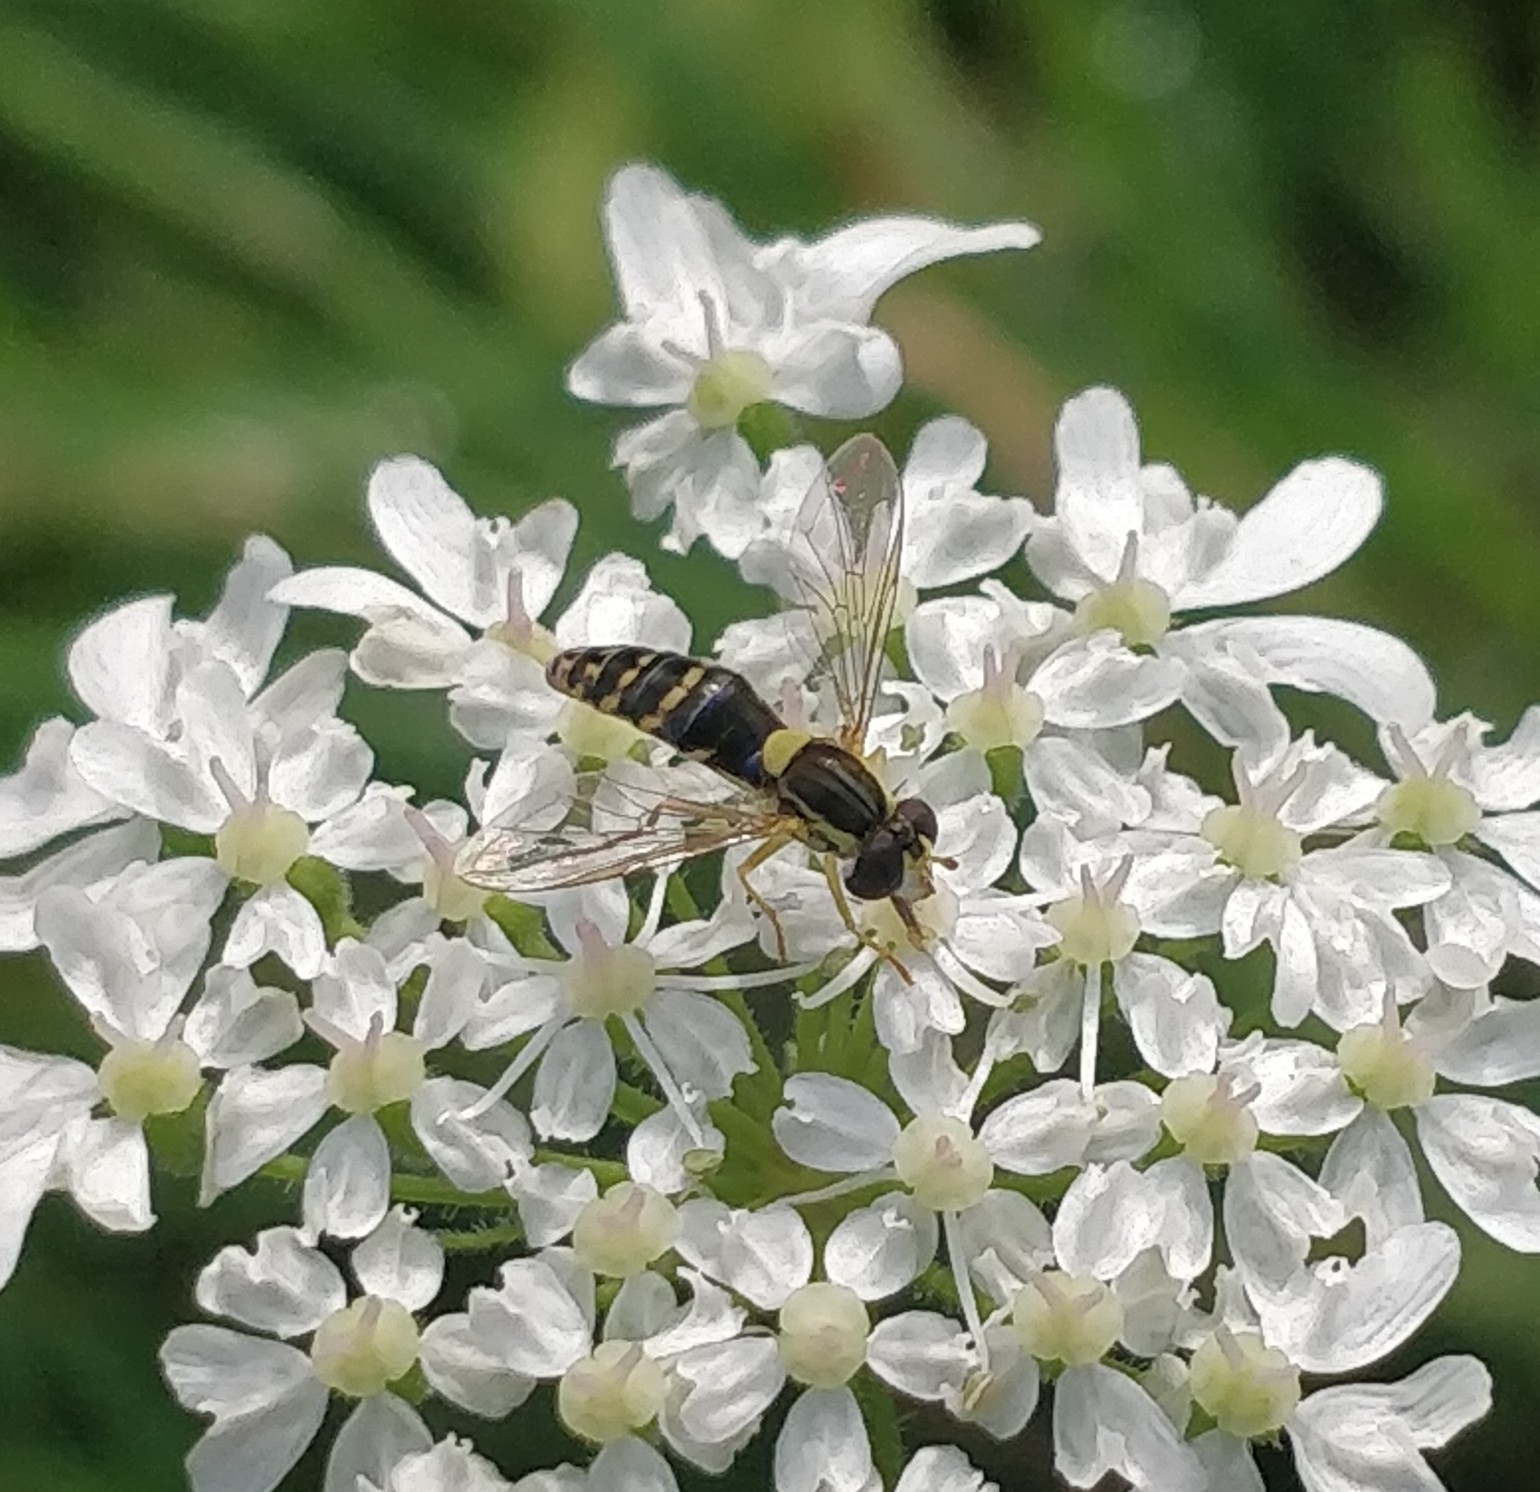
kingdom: Animalia
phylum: Arthropoda
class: Insecta
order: Diptera
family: Syrphidae
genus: Sphaerophoria
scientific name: Sphaerophoria
